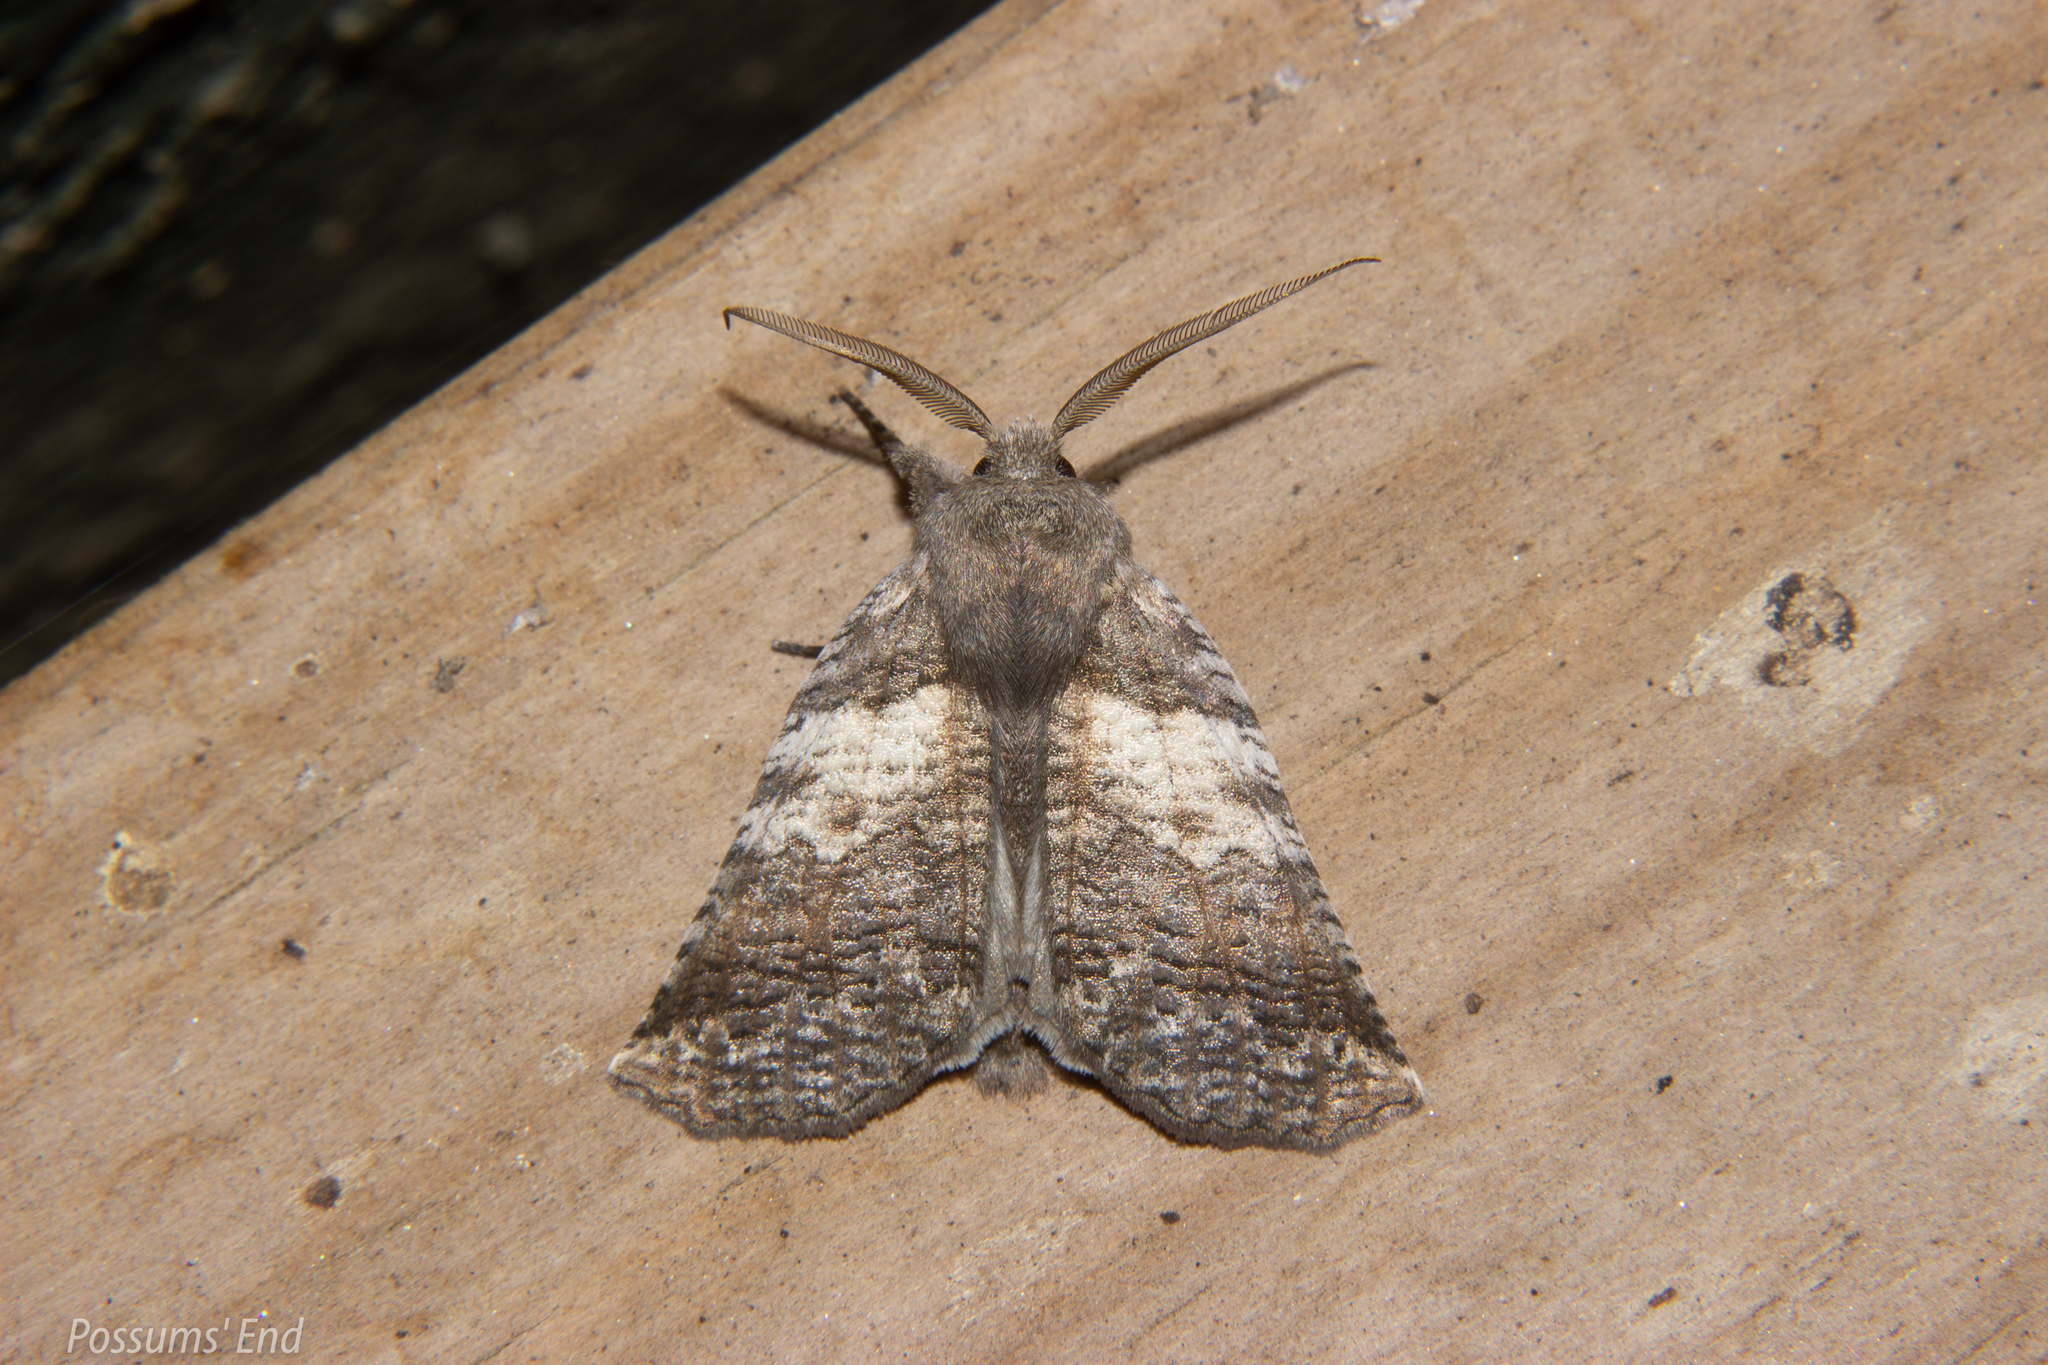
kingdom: Animalia
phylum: Arthropoda
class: Insecta
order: Lepidoptera
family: Geometridae
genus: Declana
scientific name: Declana
